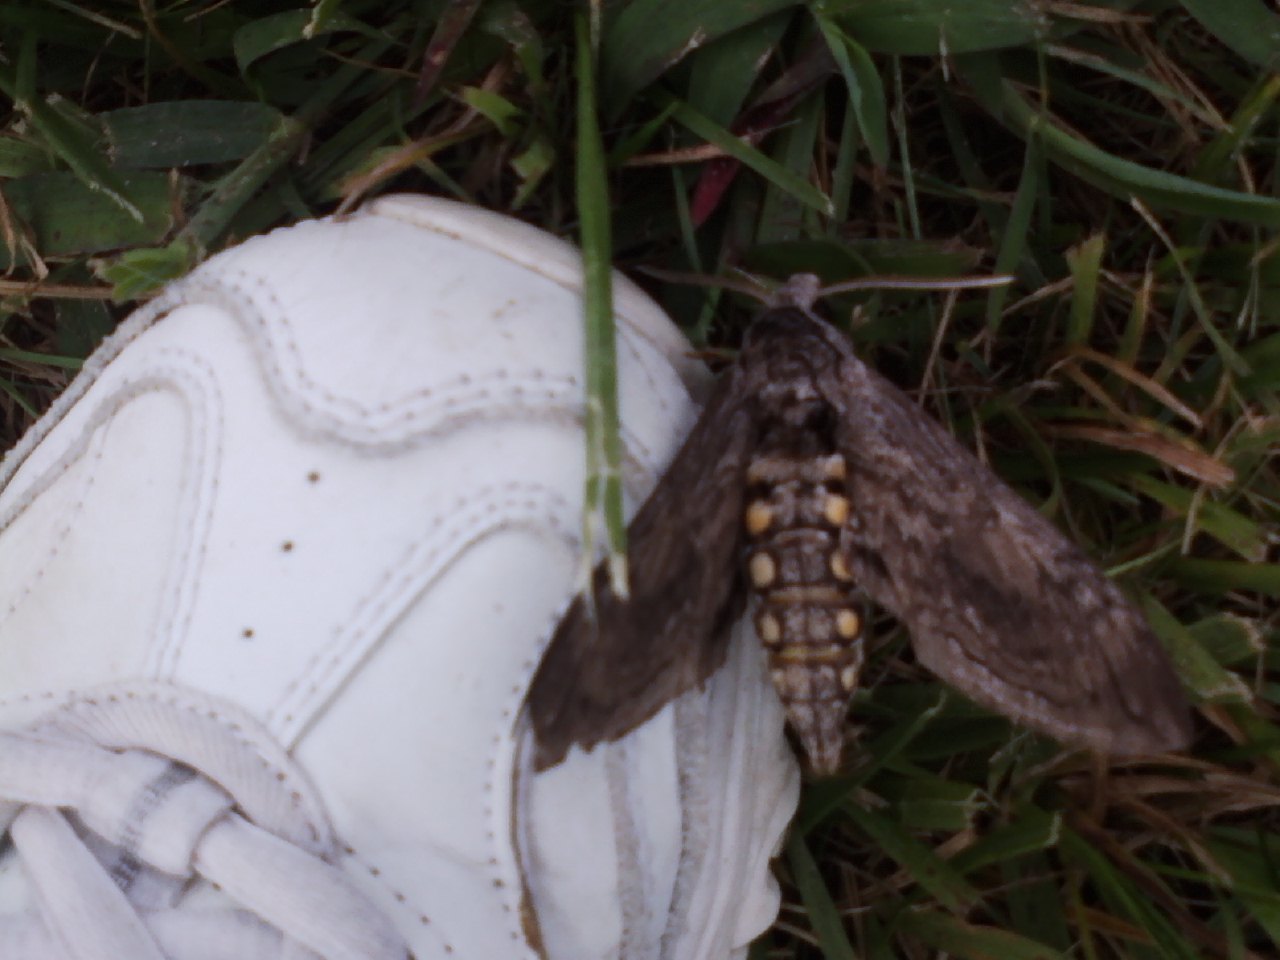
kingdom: Animalia
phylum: Arthropoda
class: Insecta
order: Lepidoptera
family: Sphingidae
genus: Manduca
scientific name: Manduca quinquemaculatus
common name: Five-spotted hawk-moth
